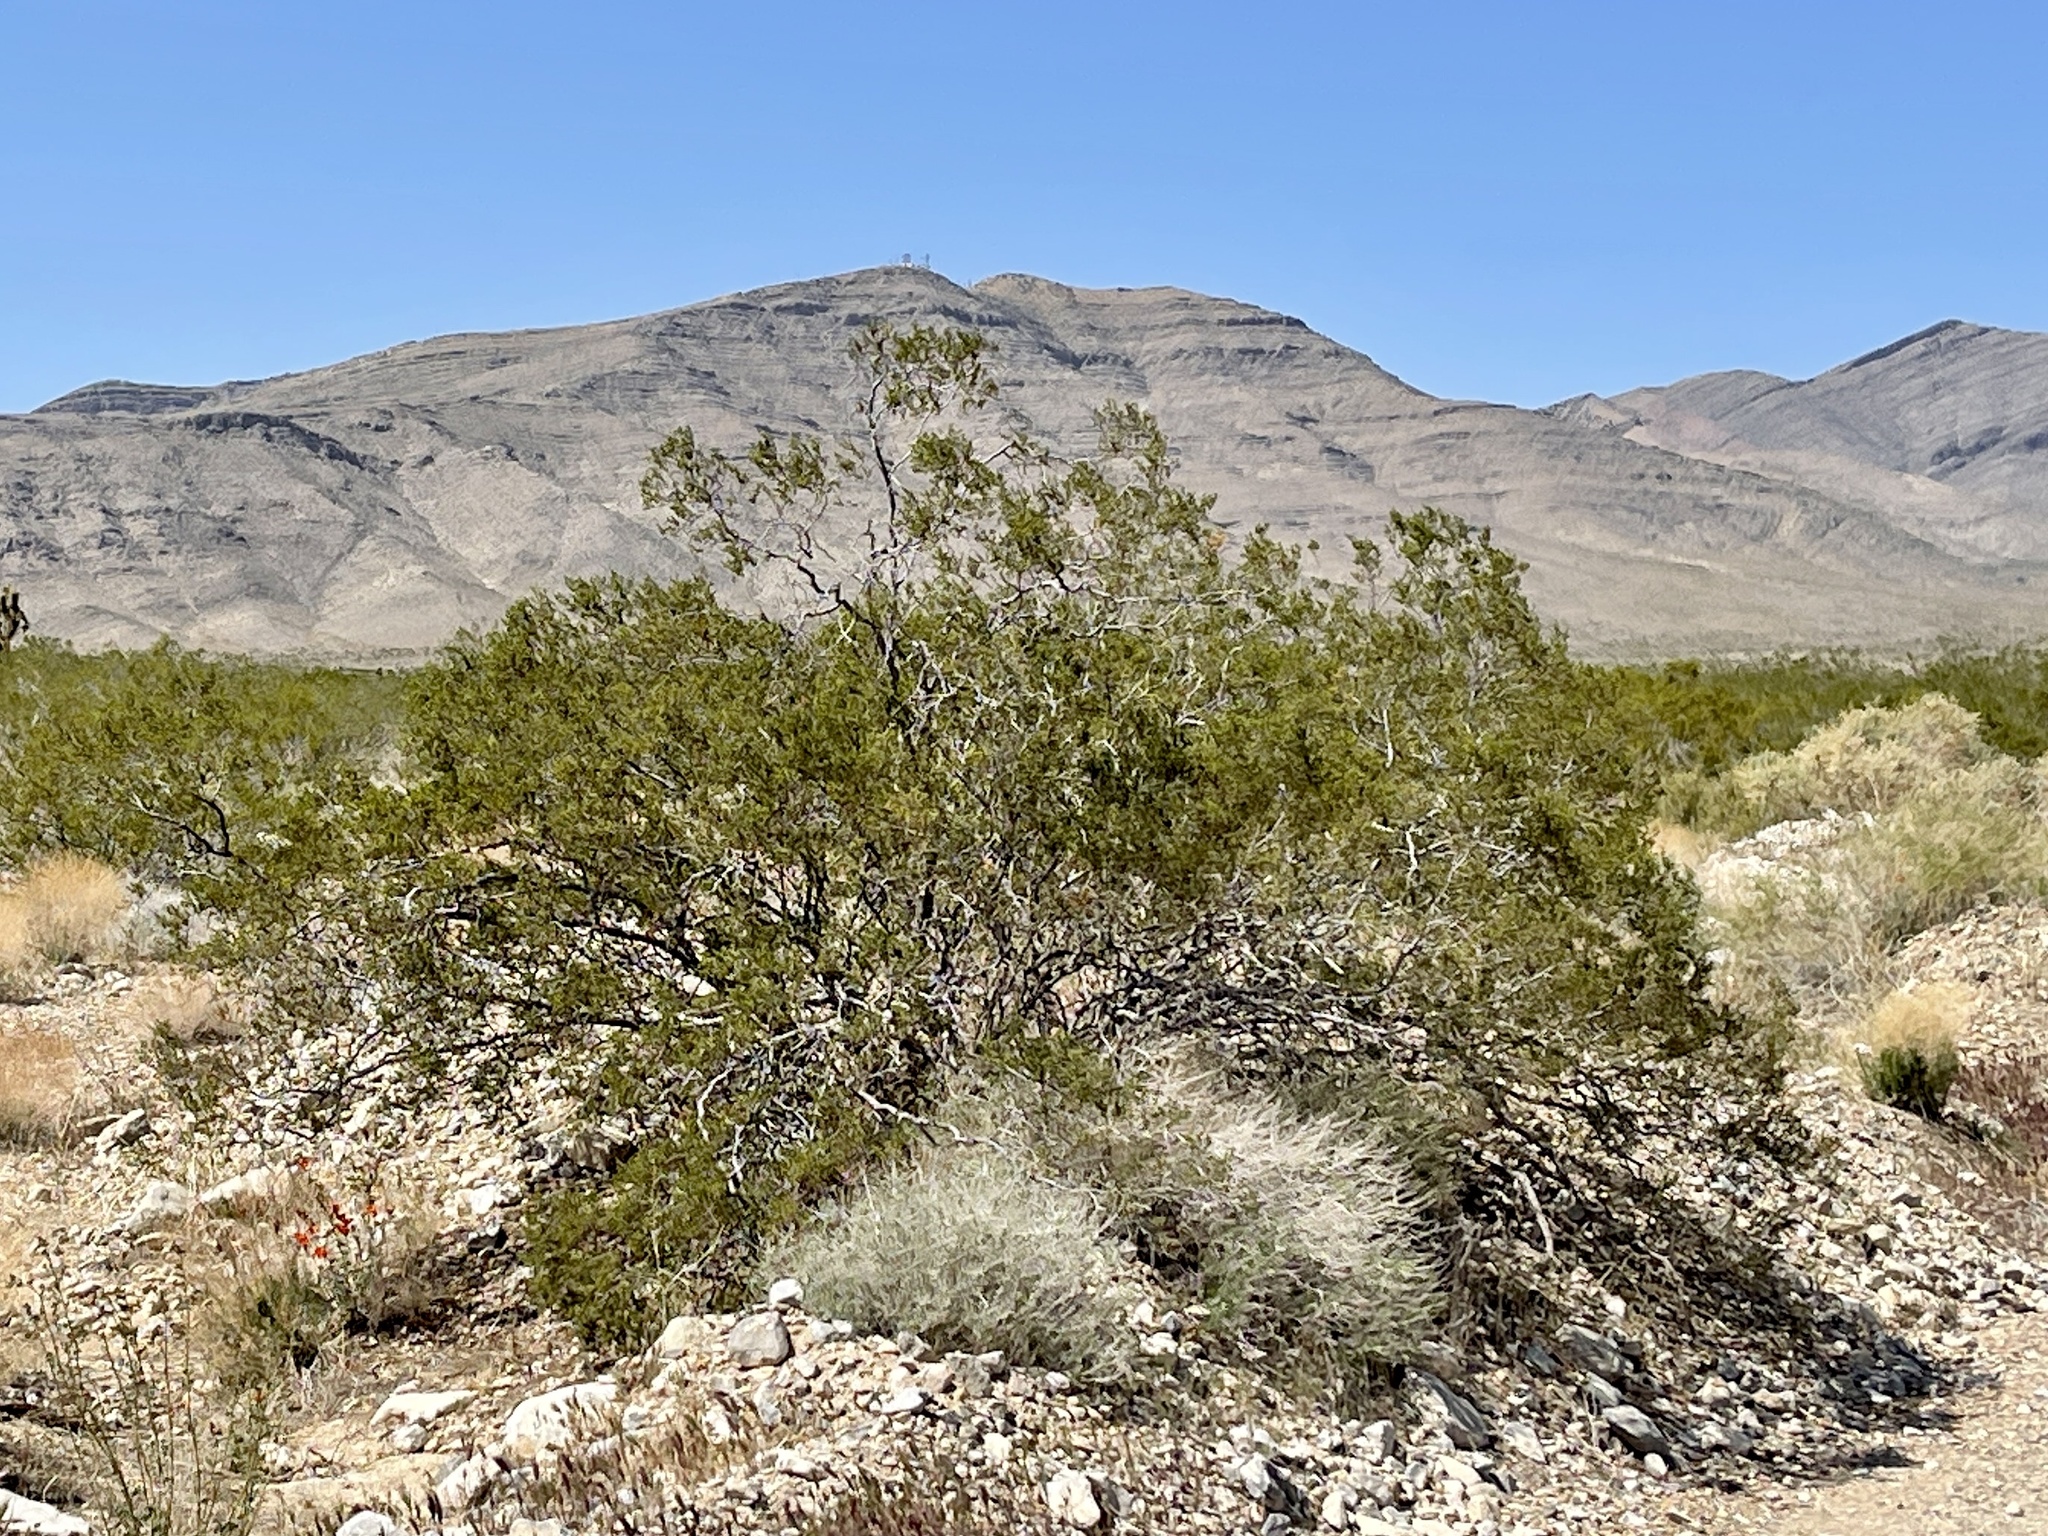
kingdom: Plantae
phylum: Tracheophyta
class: Magnoliopsida
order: Zygophyllales
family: Zygophyllaceae
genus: Larrea
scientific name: Larrea tridentata
